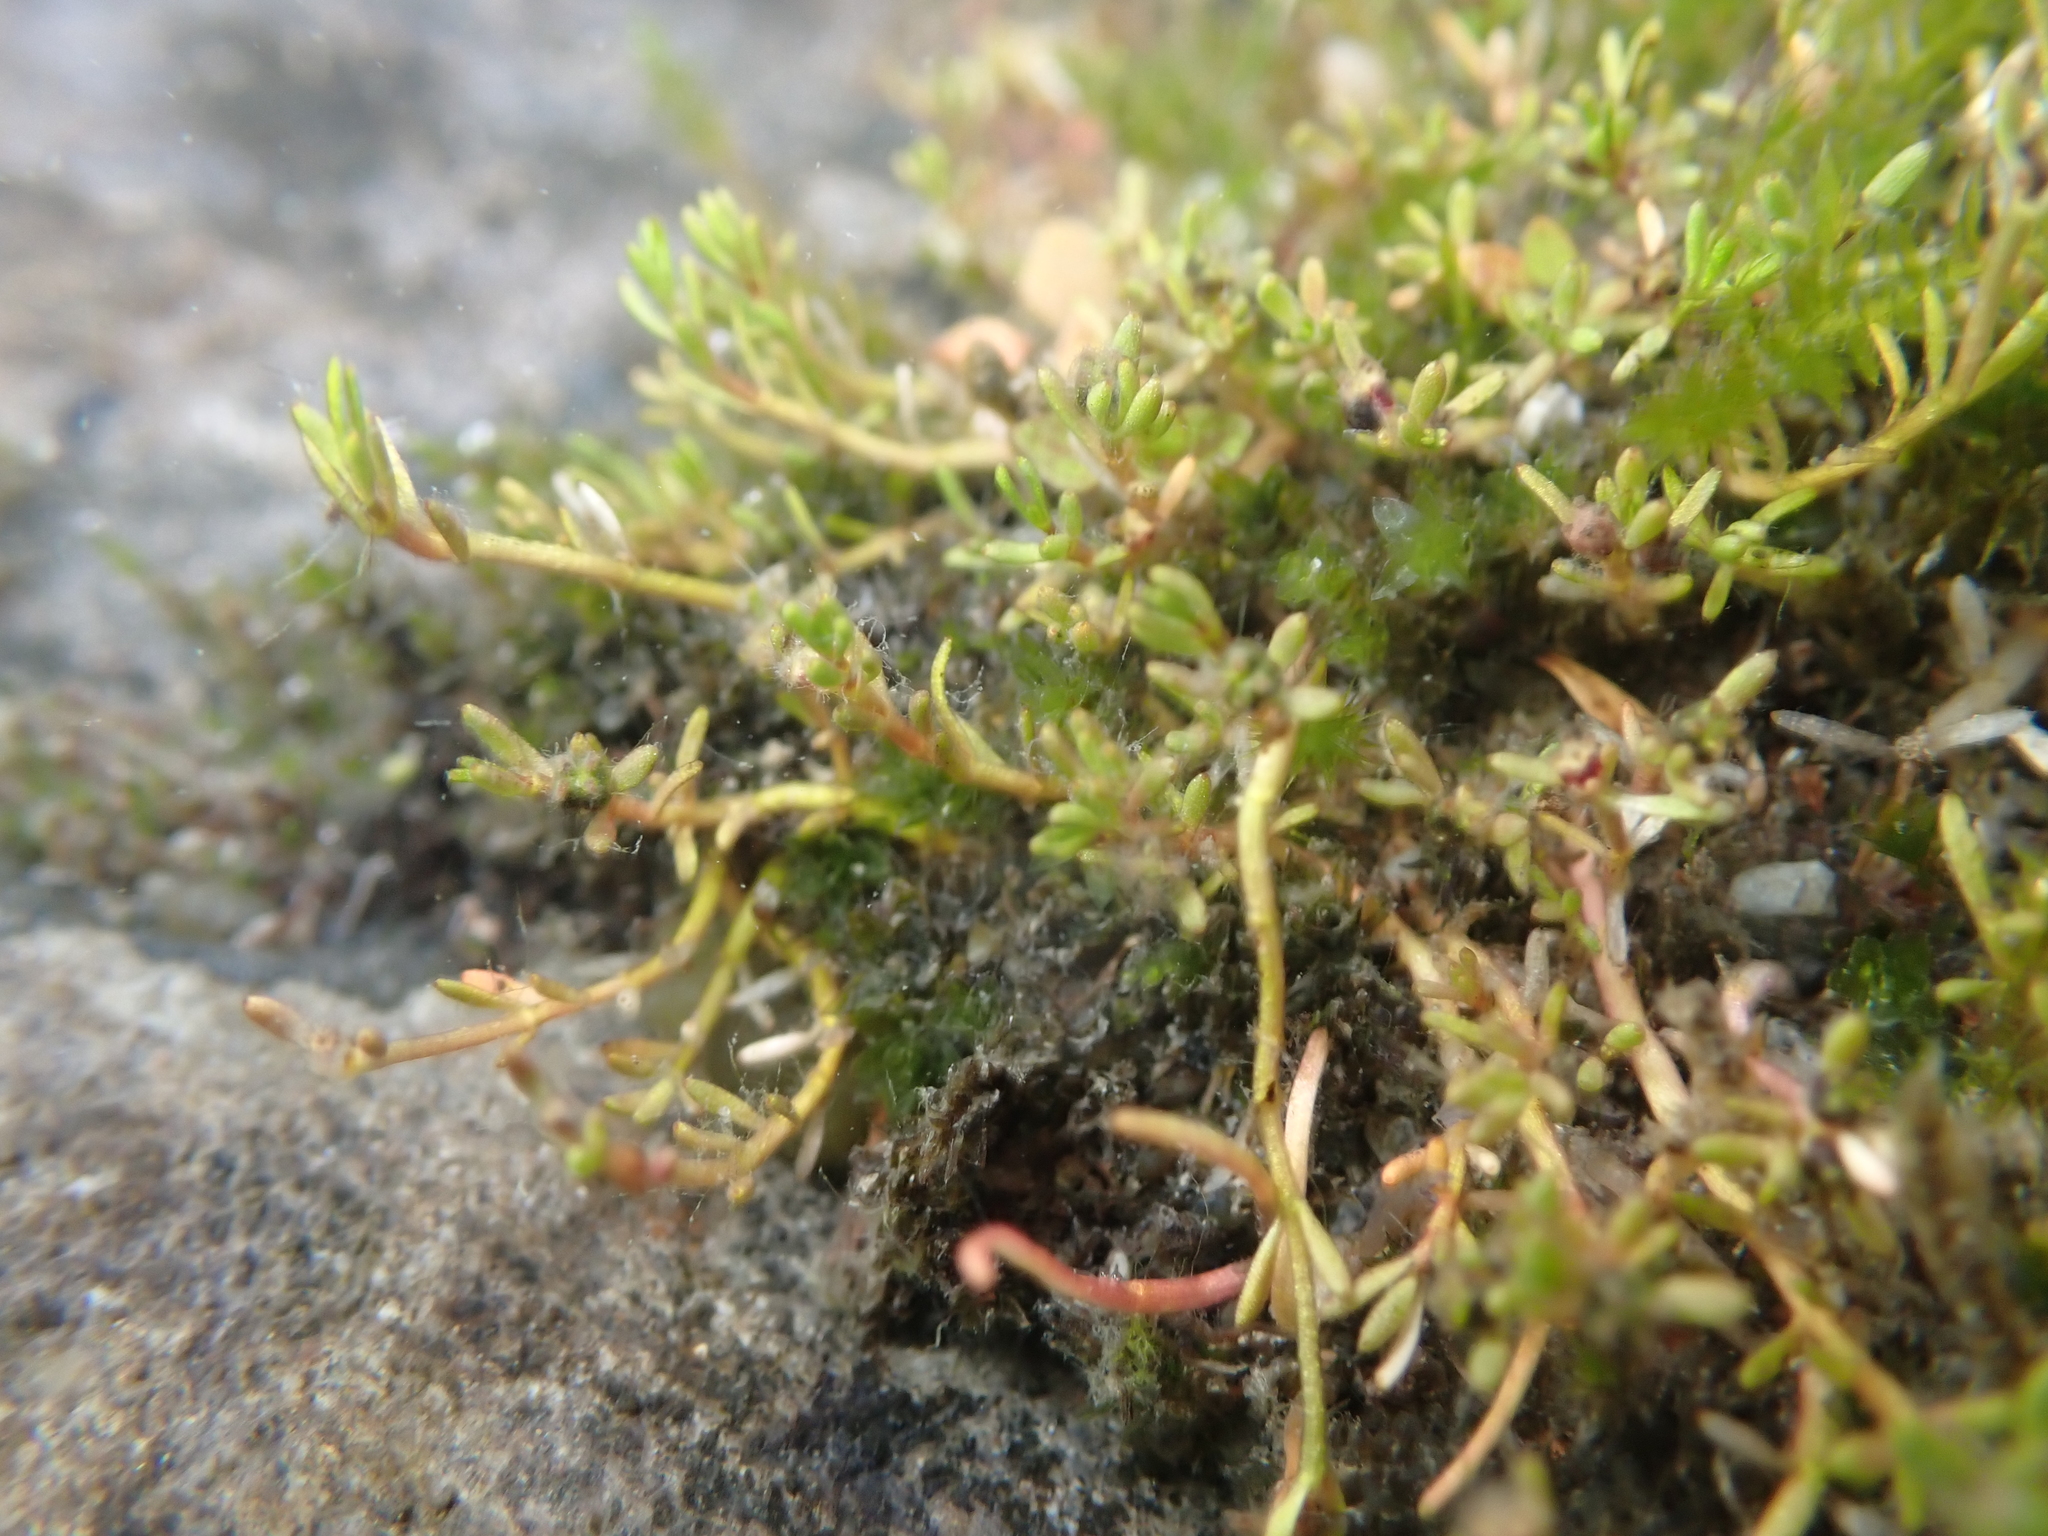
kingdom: Plantae
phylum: Tracheophyta
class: Magnoliopsida
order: Saxifragales
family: Haloragaceae
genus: Myriophyllum
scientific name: Myriophyllum votschii
